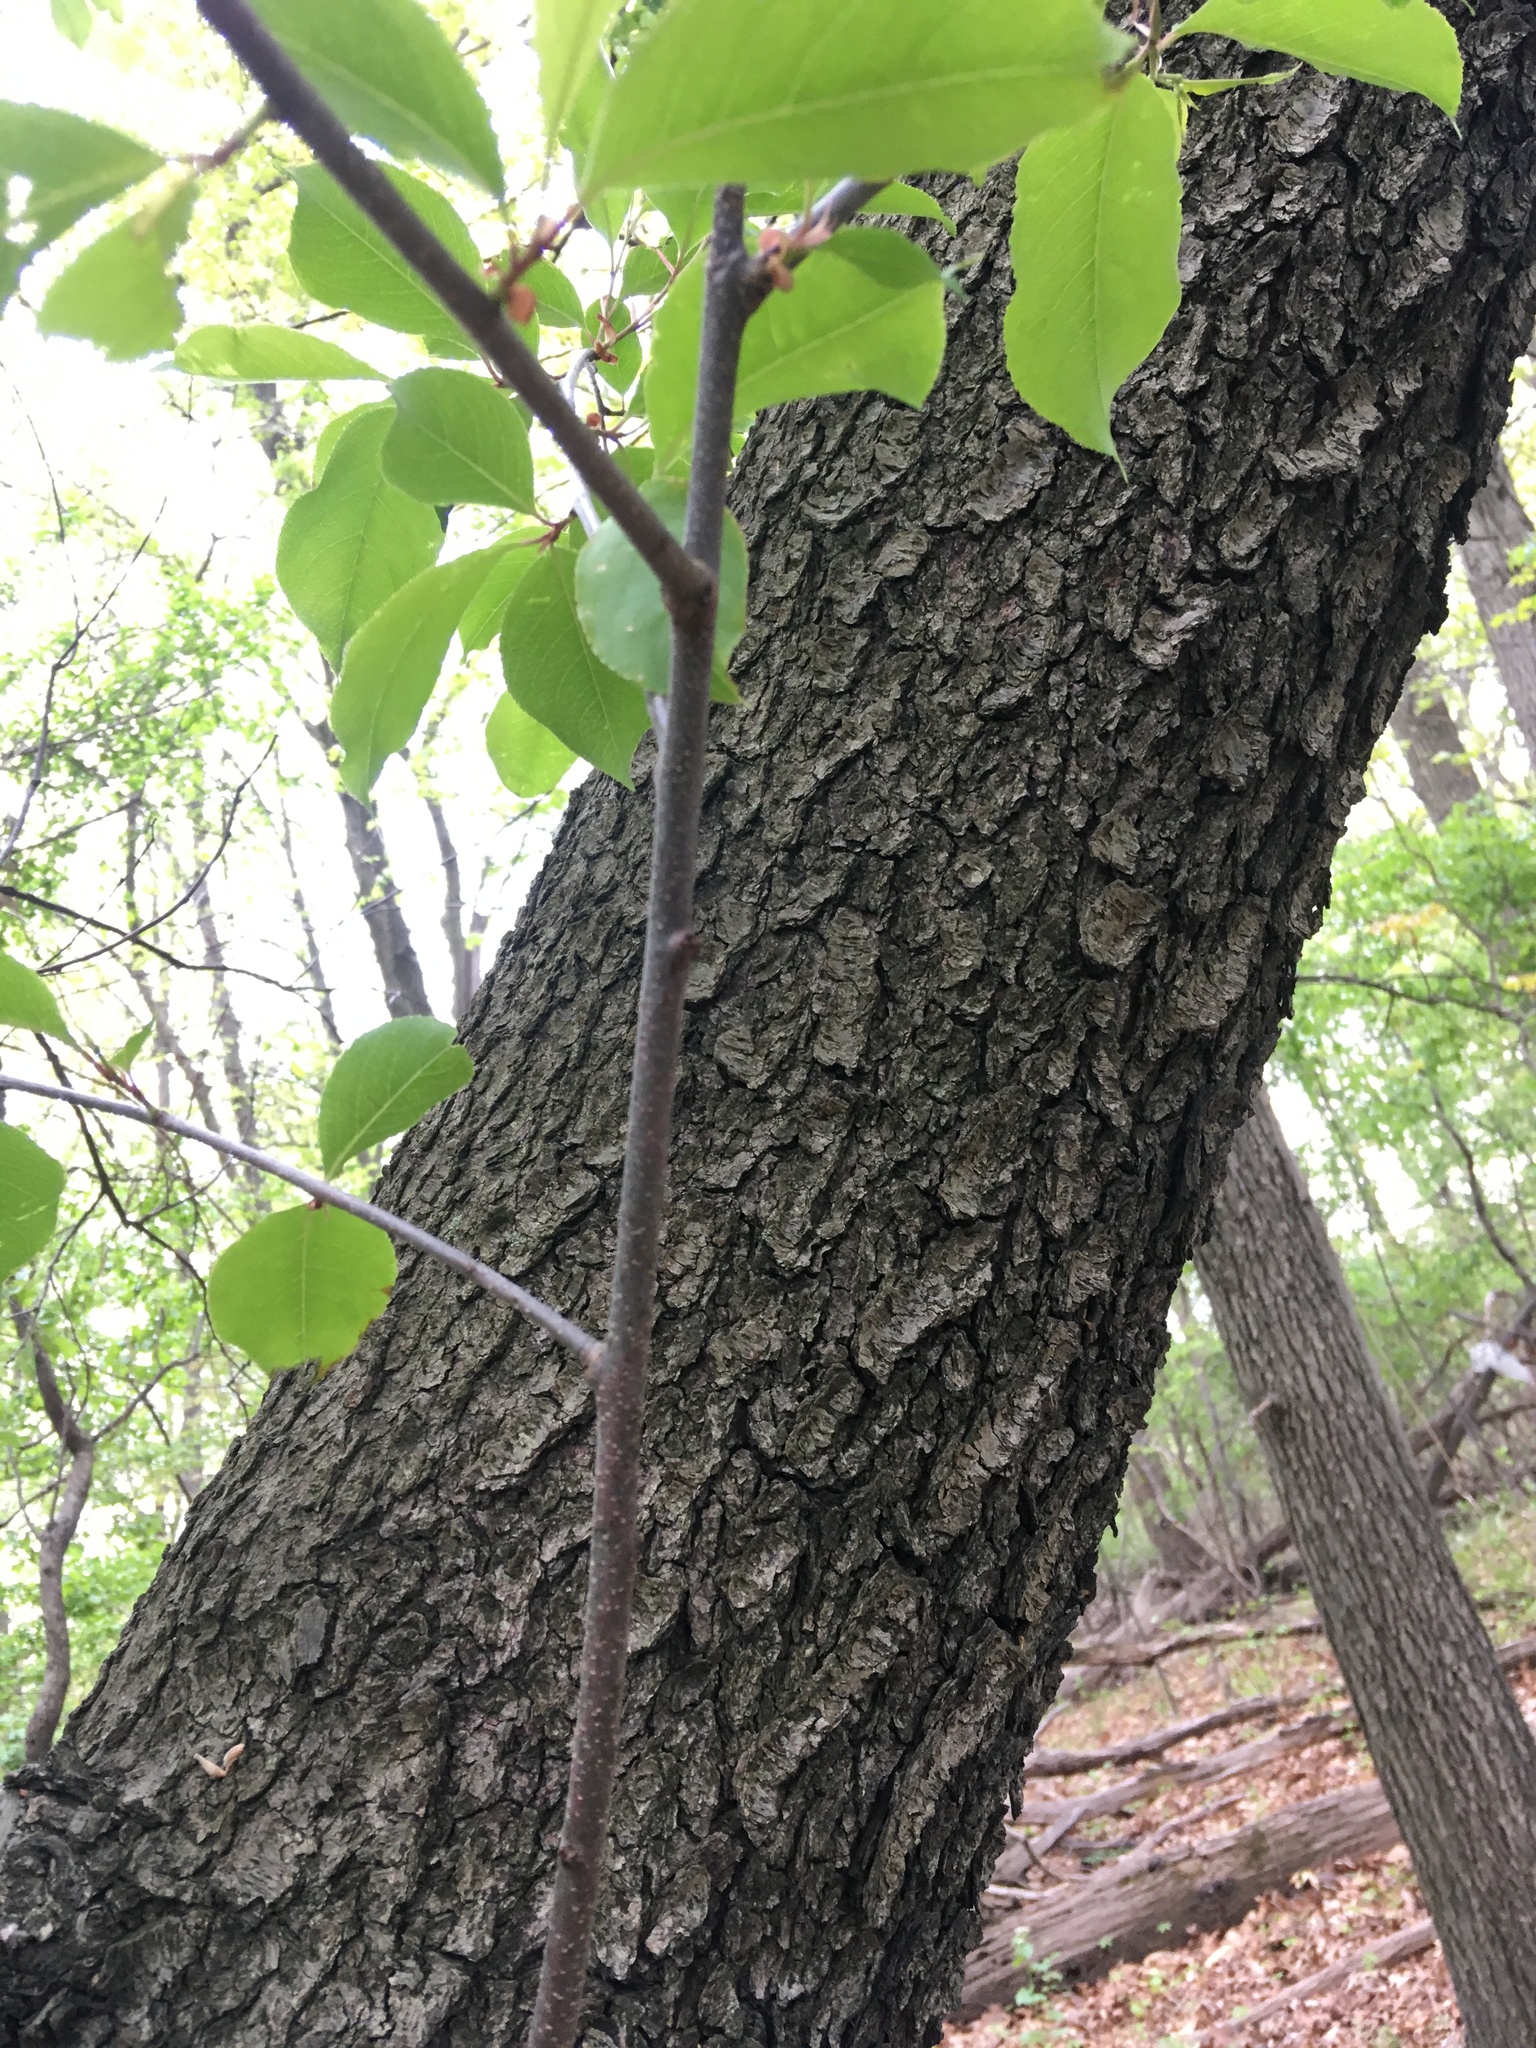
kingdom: Plantae
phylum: Tracheophyta
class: Magnoliopsida
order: Rosales
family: Rosaceae
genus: Prunus
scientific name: Prunus serotina
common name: Black cherry
